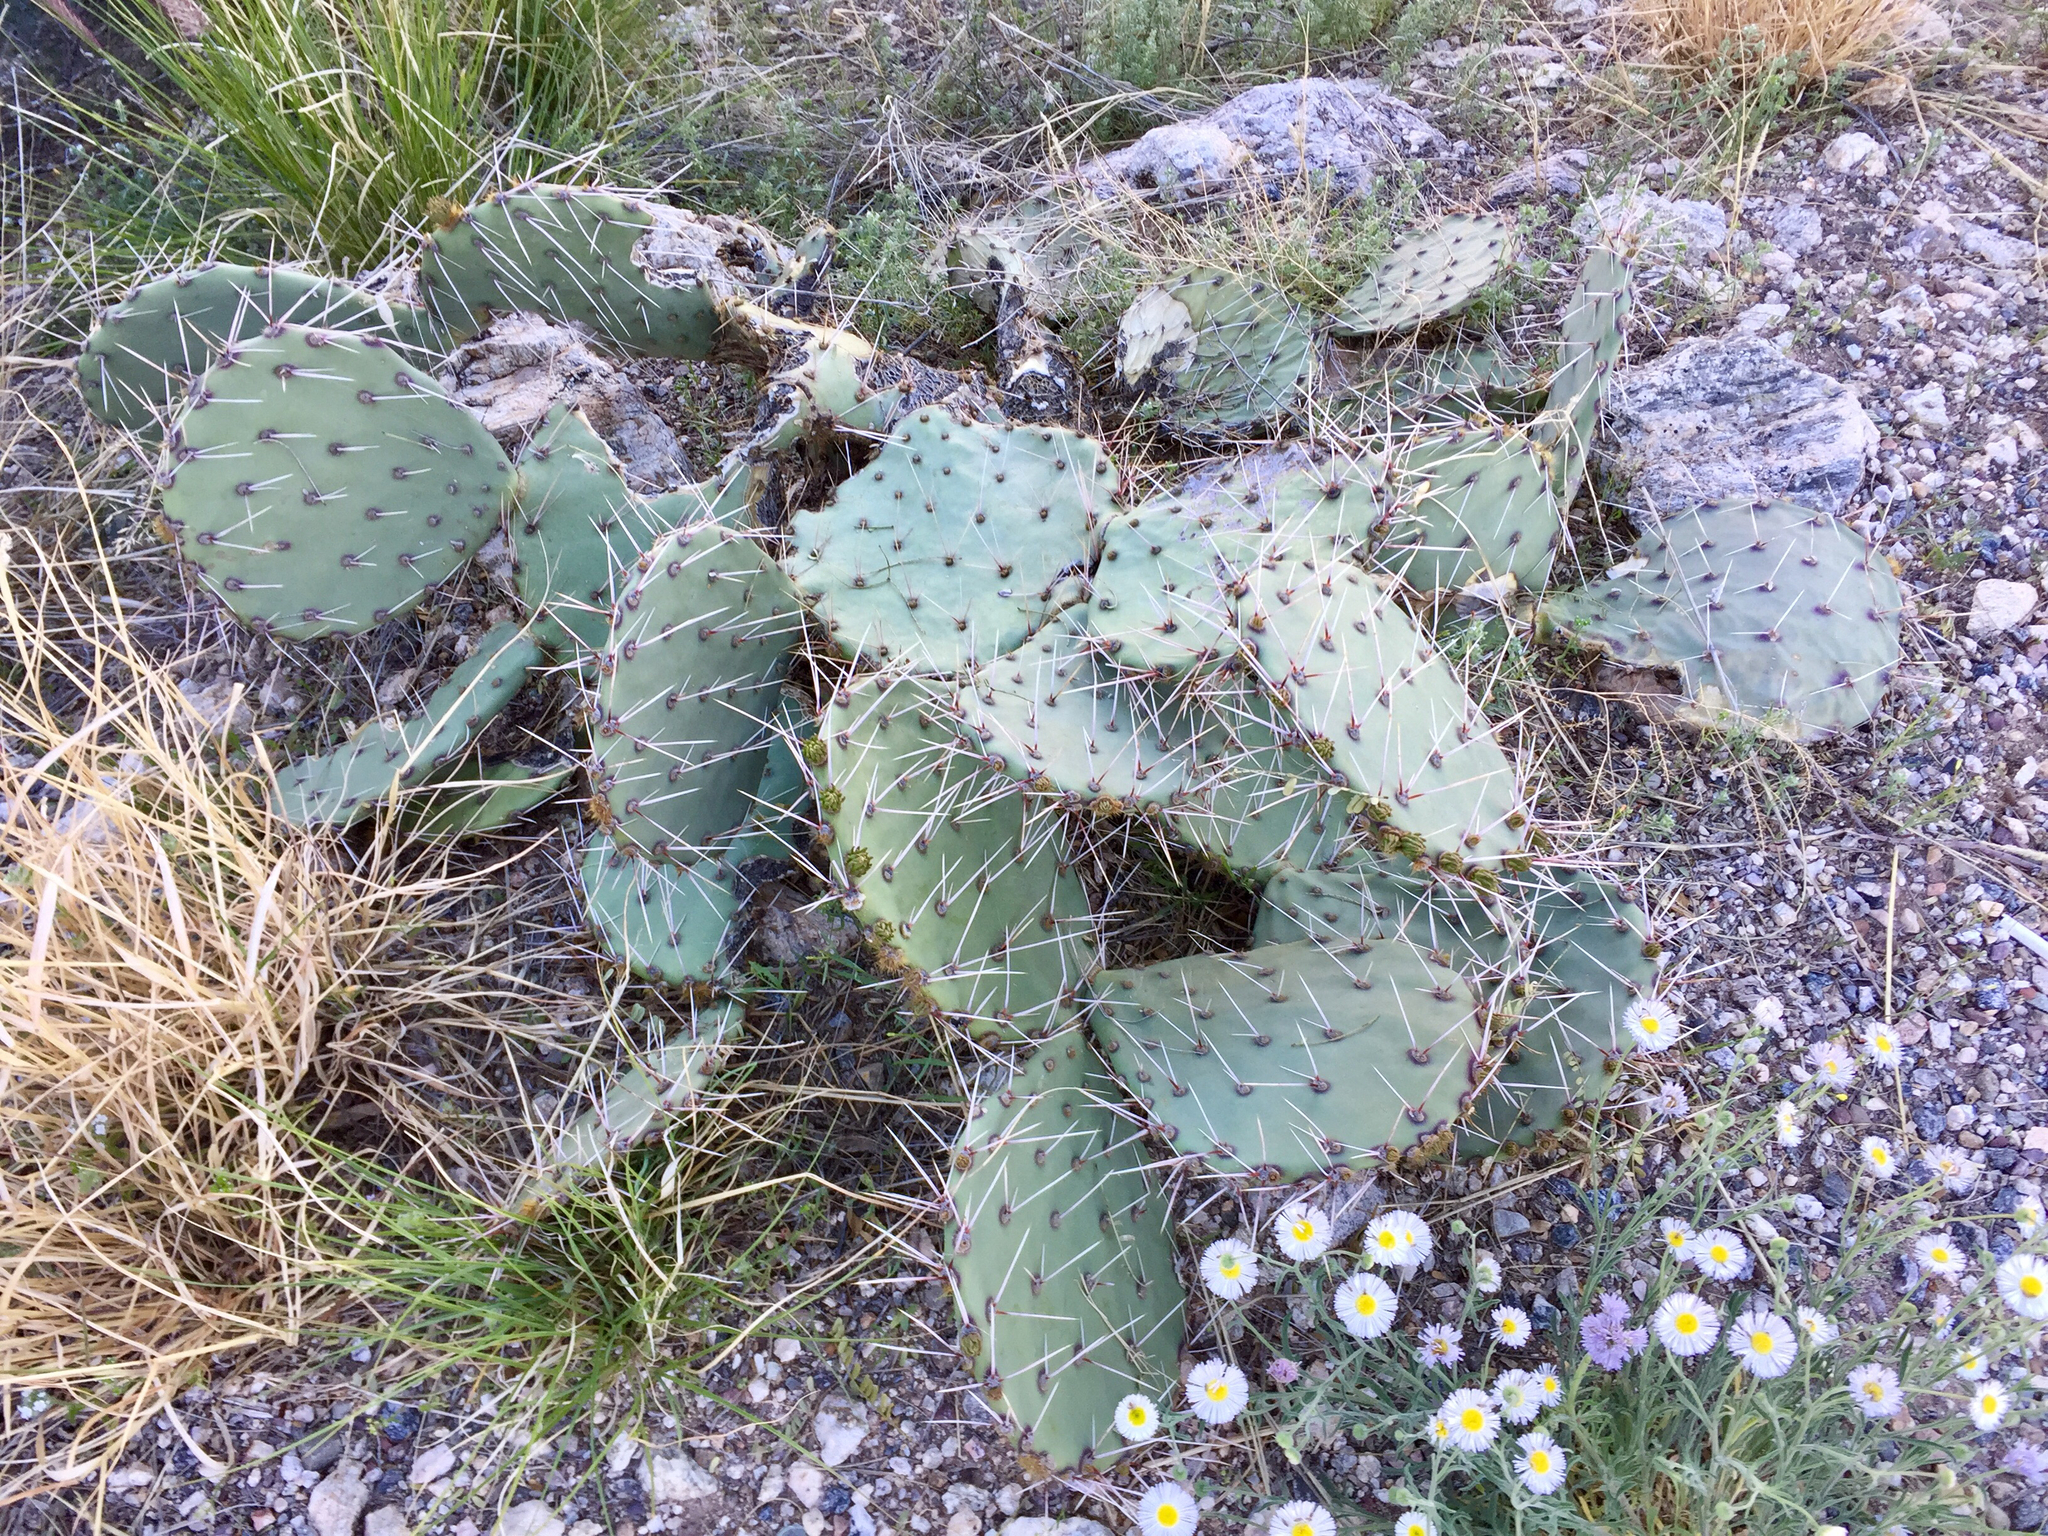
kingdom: Plantae
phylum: Tracheophyta
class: Magnoliopsida
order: Caryophyllales
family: Cactaceae
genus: Opuntia
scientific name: Opuntia engelmannii
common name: Cactus-apple
